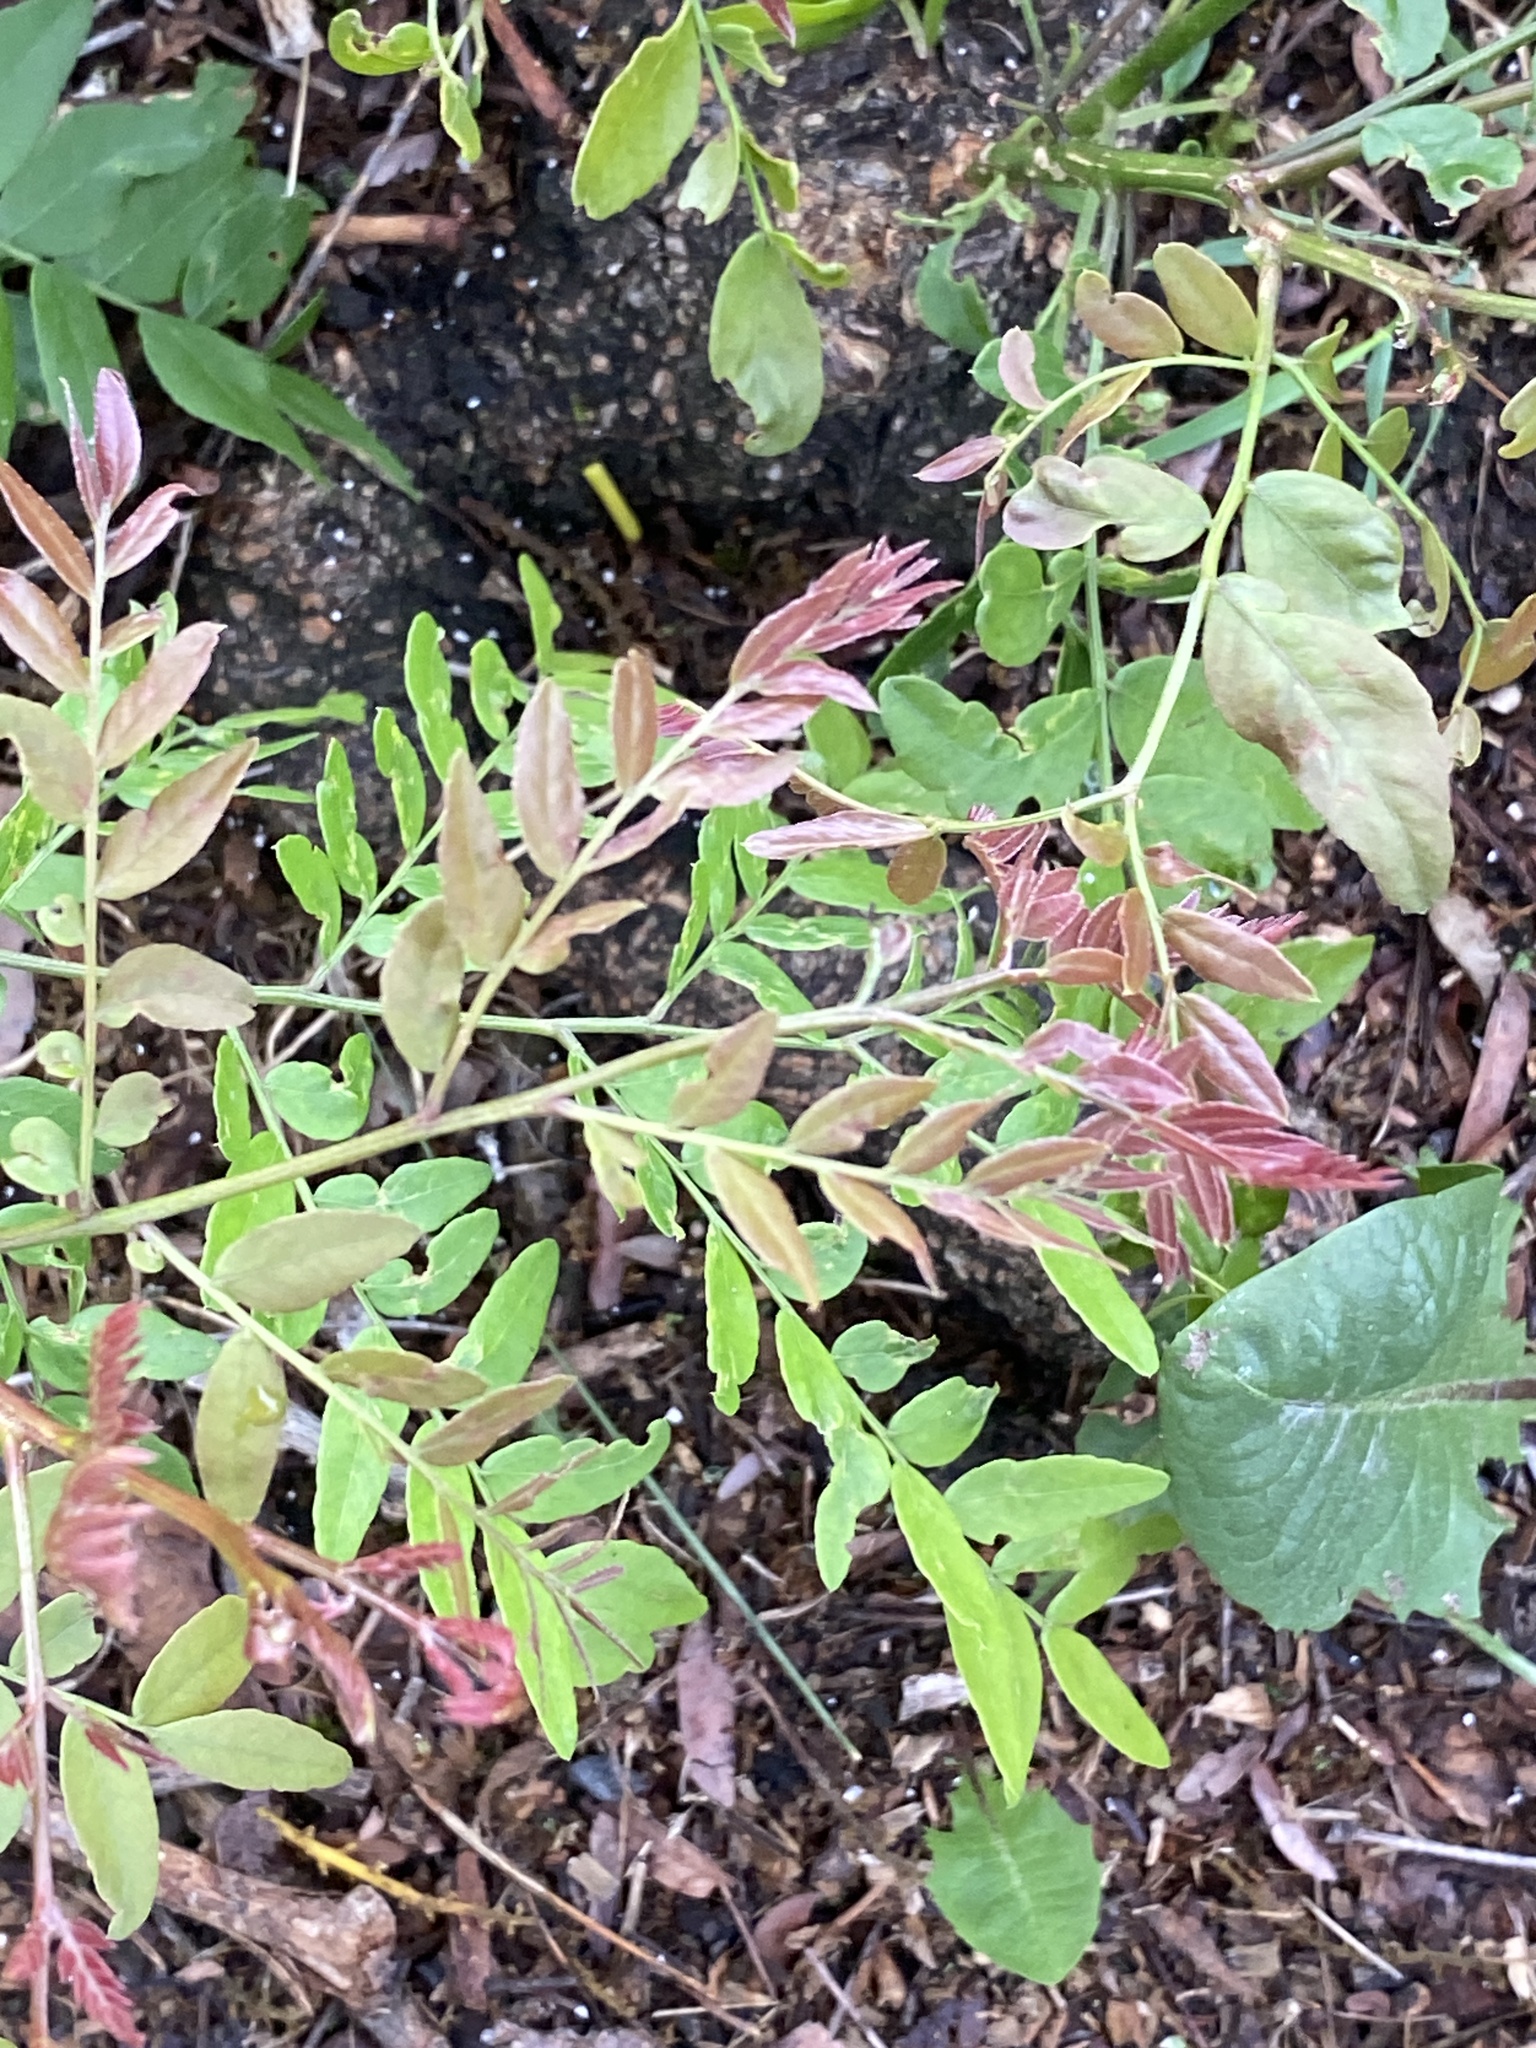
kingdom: Plantae
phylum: Tracheophyta
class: Magnoliopsida
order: Fabales
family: Fabaceae
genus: Gleditsia
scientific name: Gleditsia triacanthos
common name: Common honeylocust
